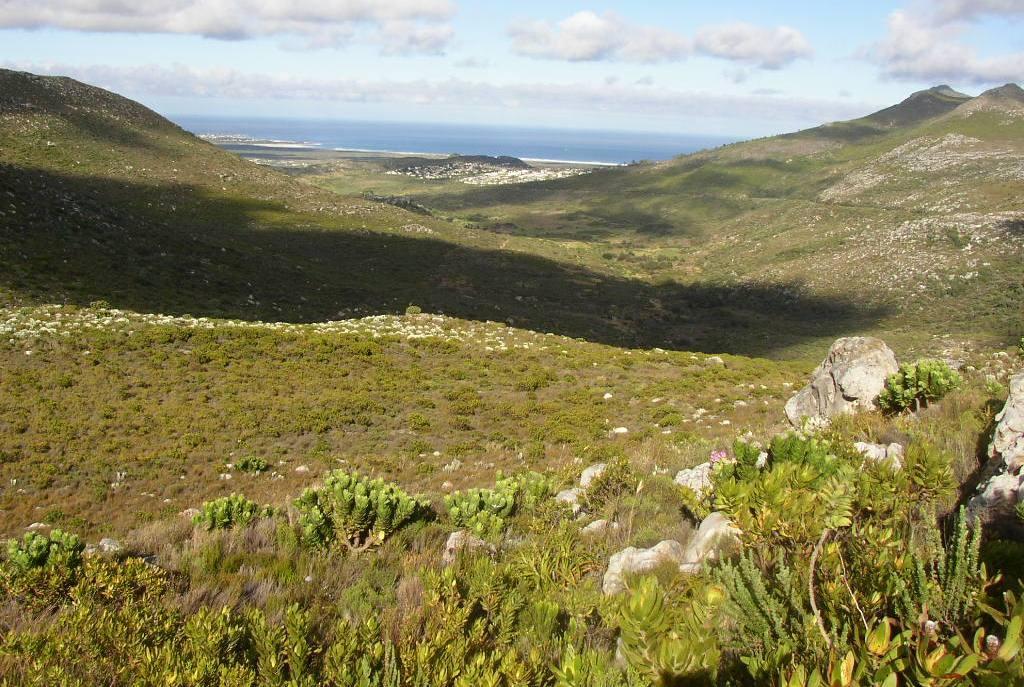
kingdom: Plantae
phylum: Tracheophyta
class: Magnoliopsida
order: Proteales
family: Proteaceae
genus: Leucospermum
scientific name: Leucospermum conocarpodendron
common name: Tree pincushion
